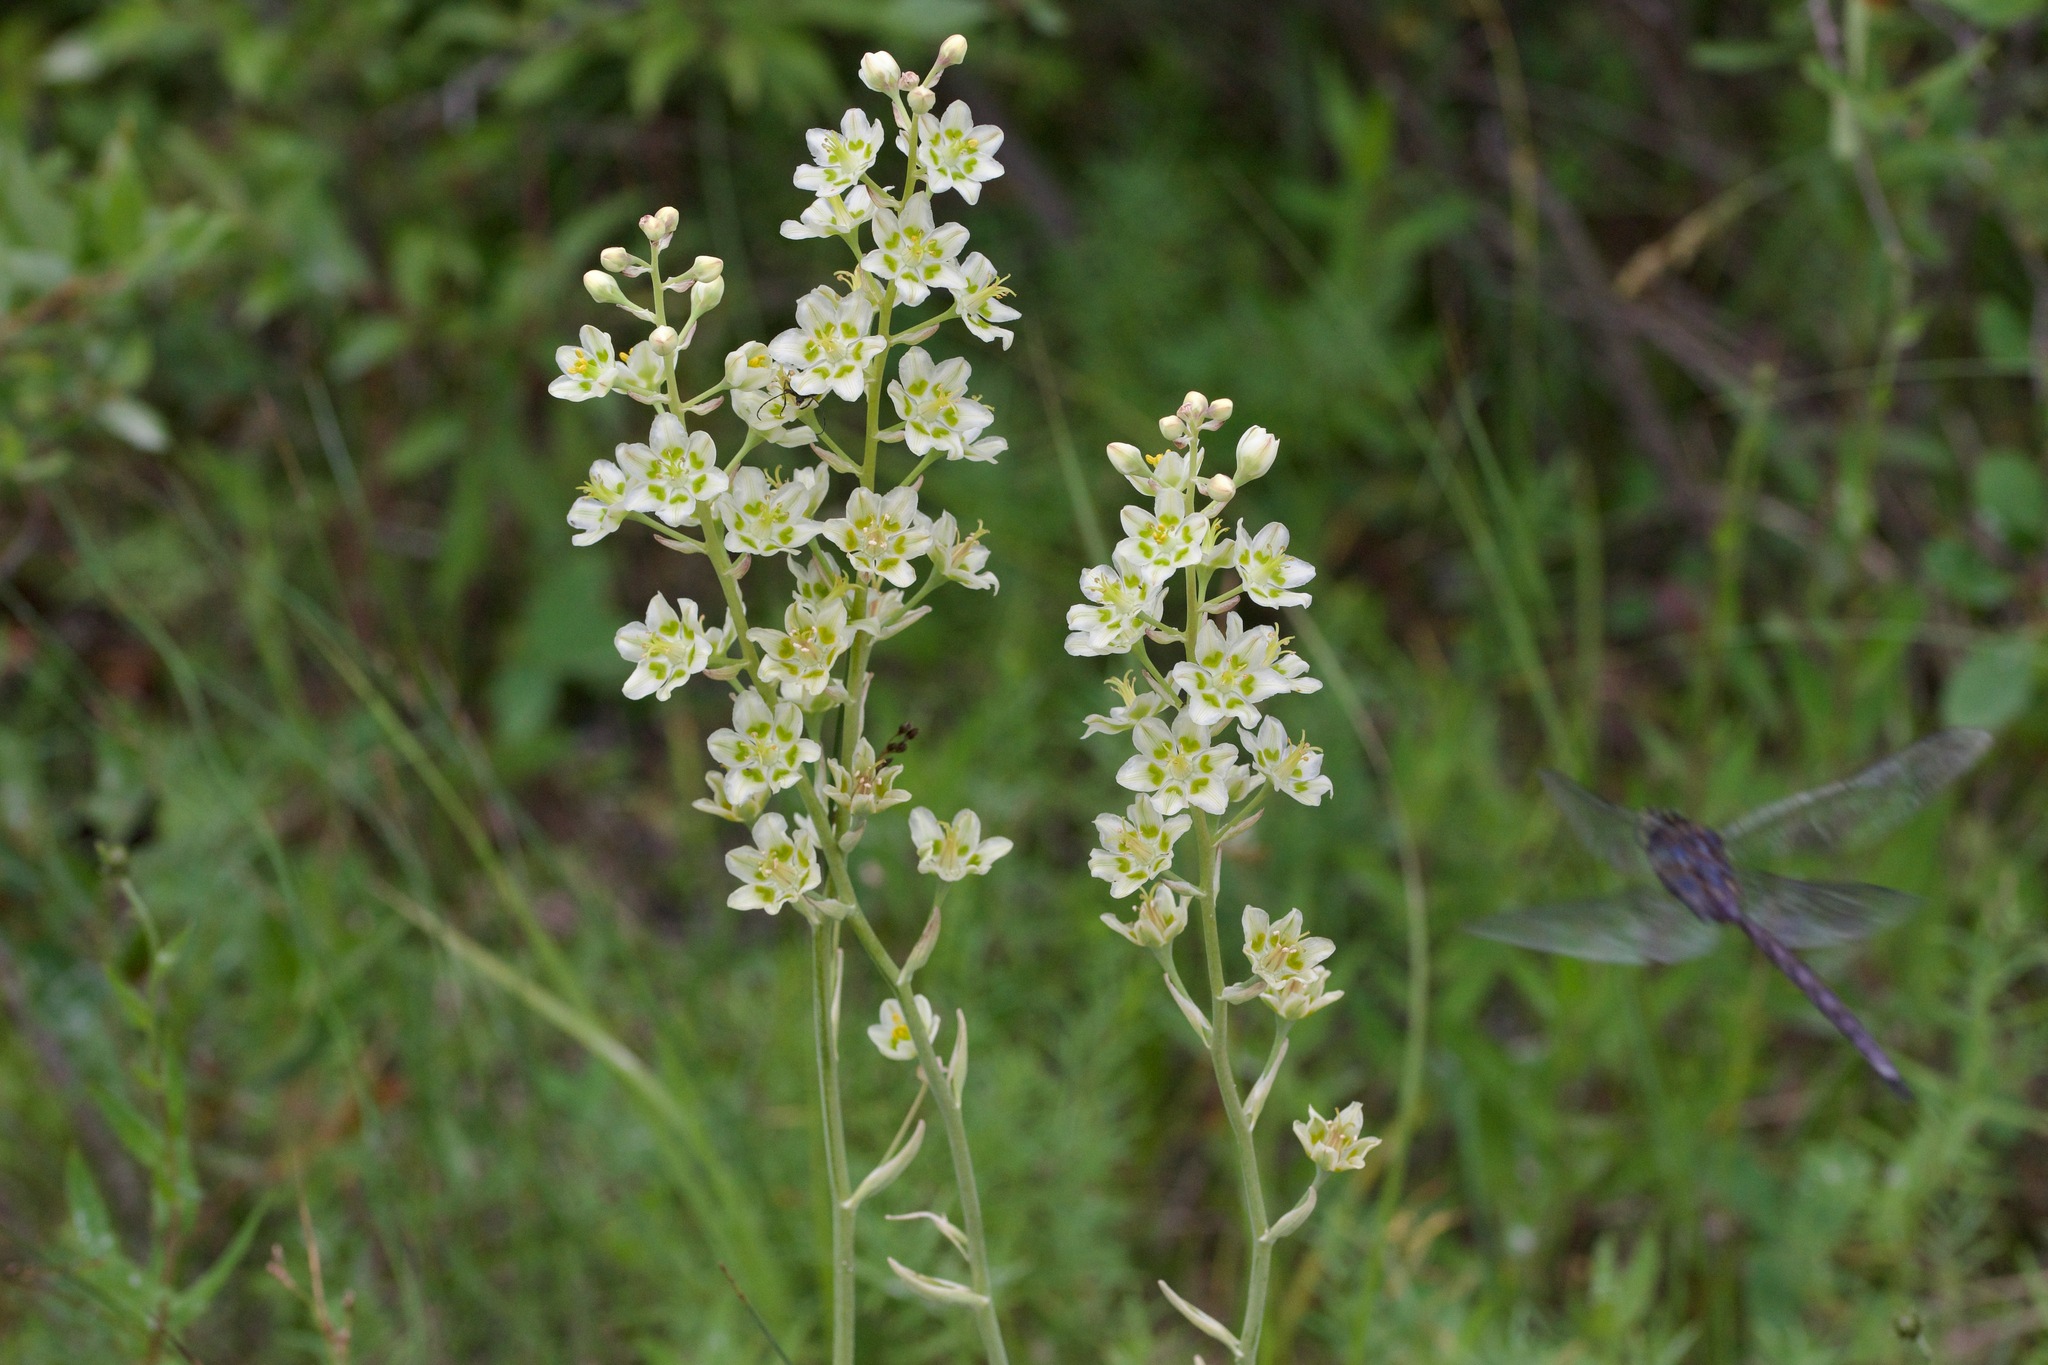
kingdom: Plantae
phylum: Tracheophyta
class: Liliopsida
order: Liliales
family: Melanthiaceae
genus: Anticlea
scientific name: Anticlea elegans
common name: Mountain death camas
